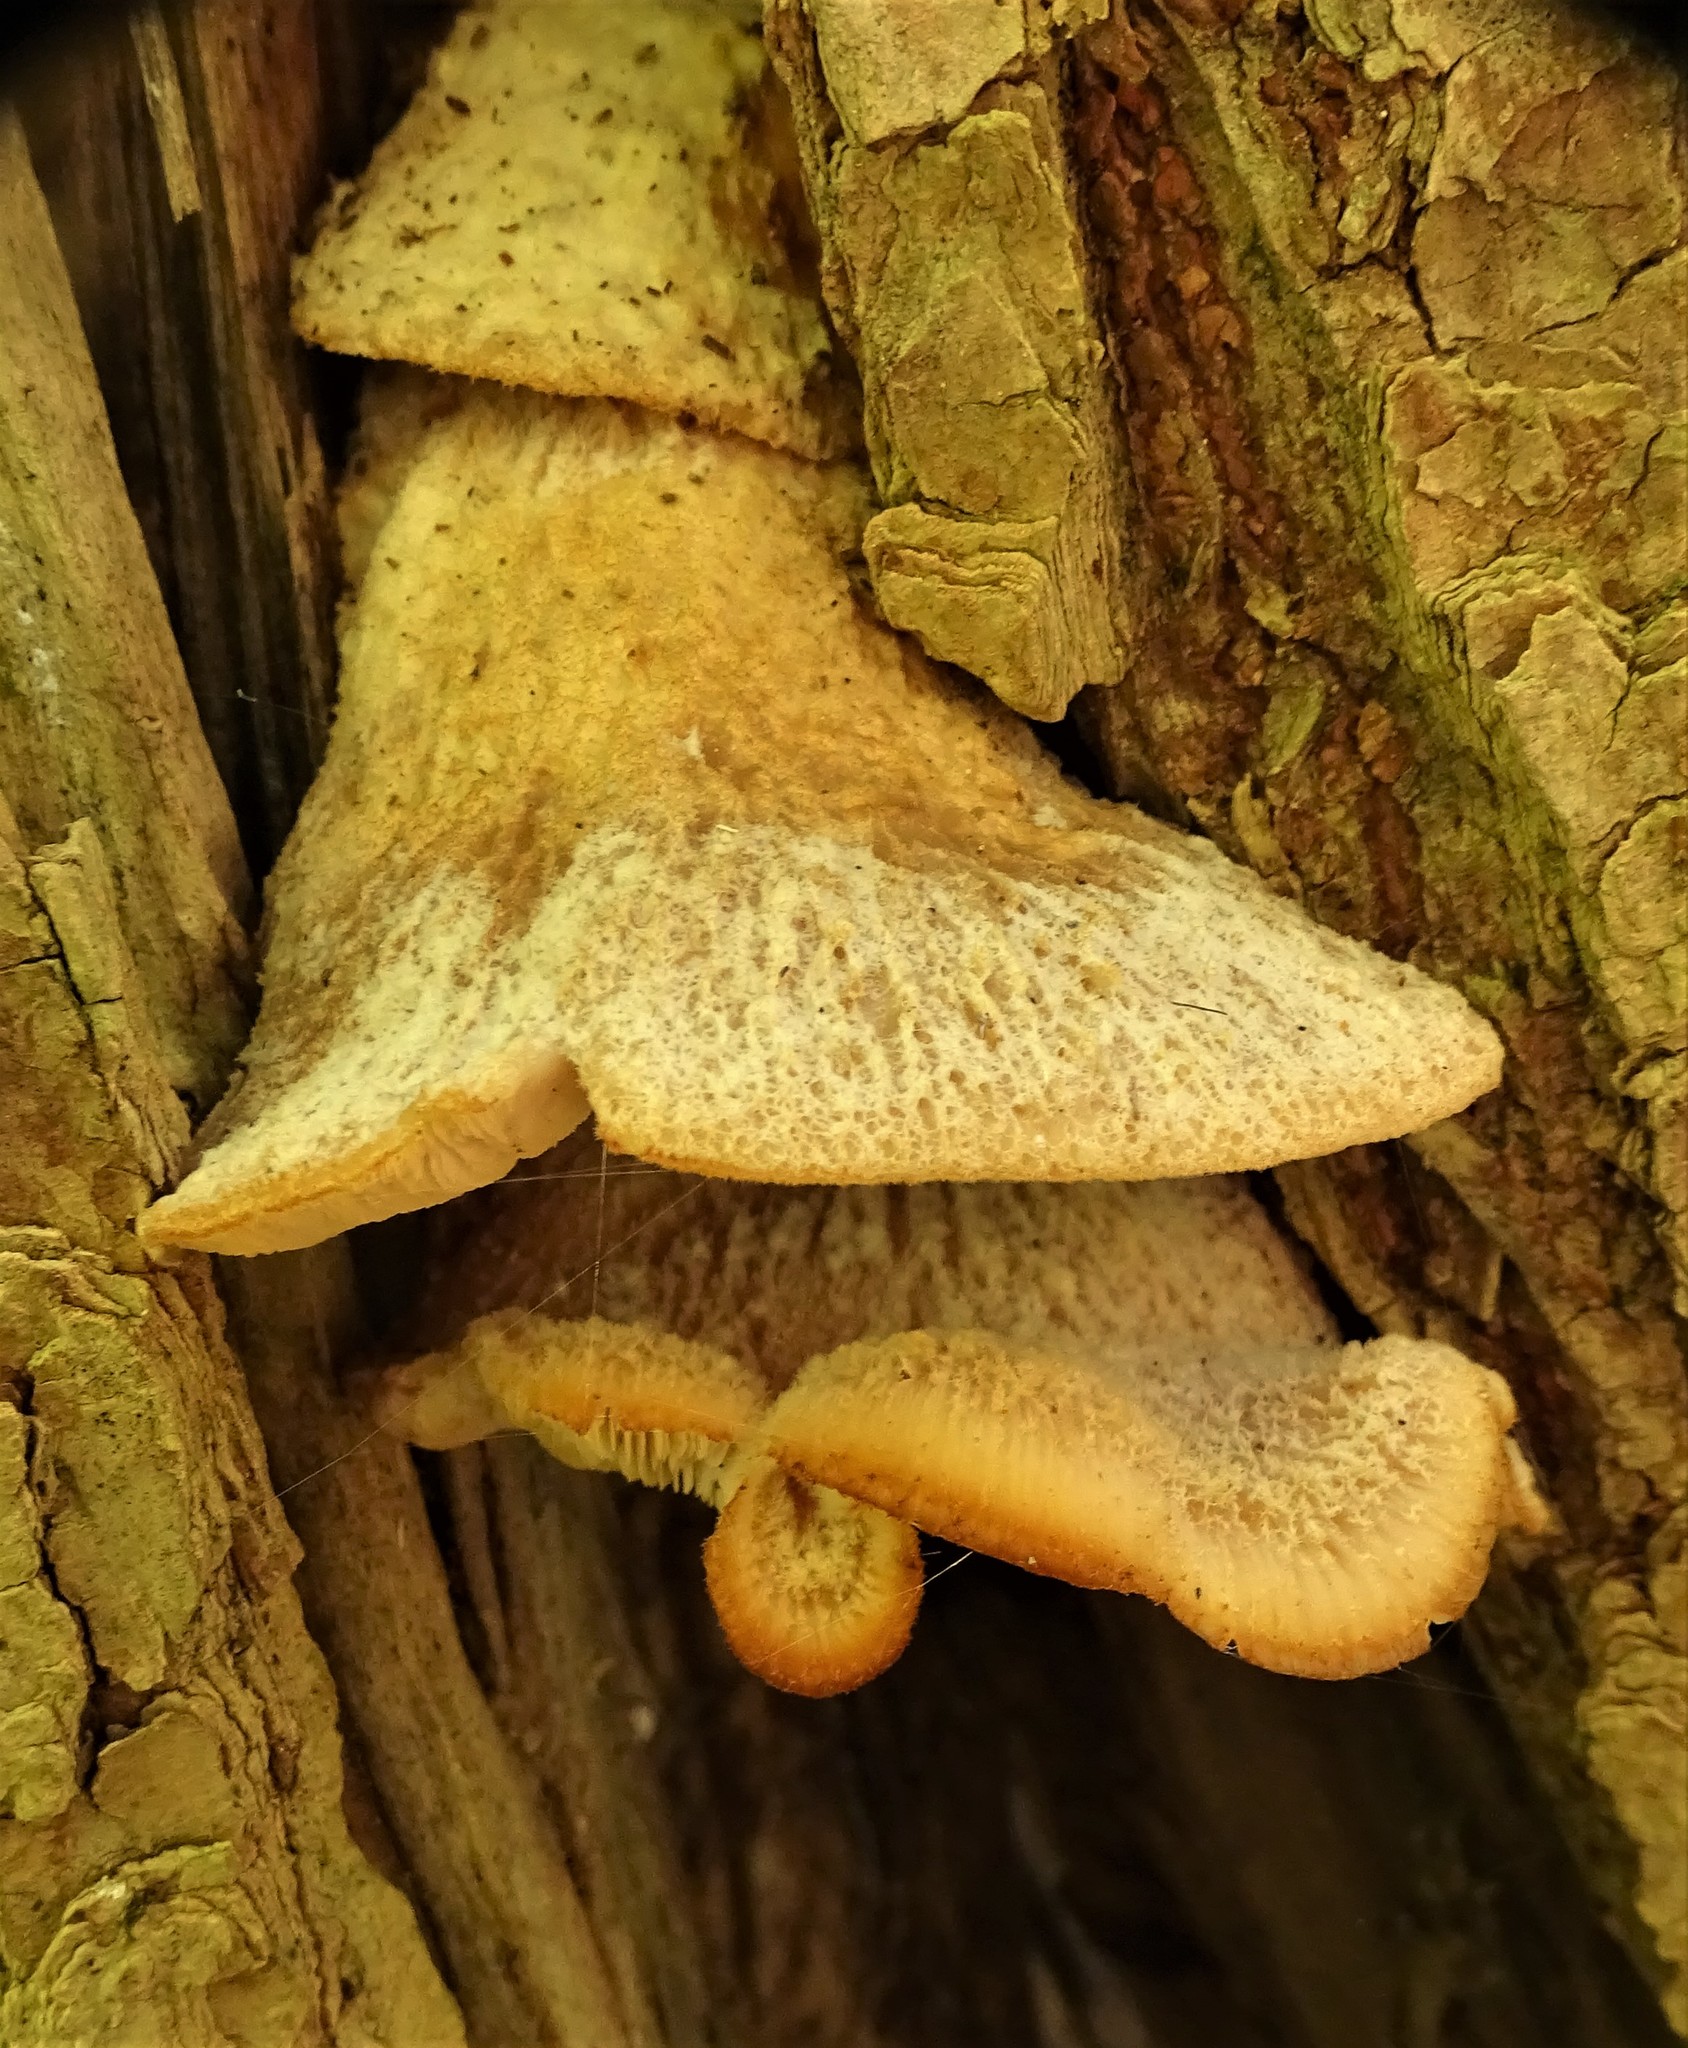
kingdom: Fungi
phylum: Basidiomycota
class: Agaricomycetes
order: Russulales
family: Auriscalpiaceae
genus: Lentinellus
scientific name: Lentinellus ursinus
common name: Bear lentinus
